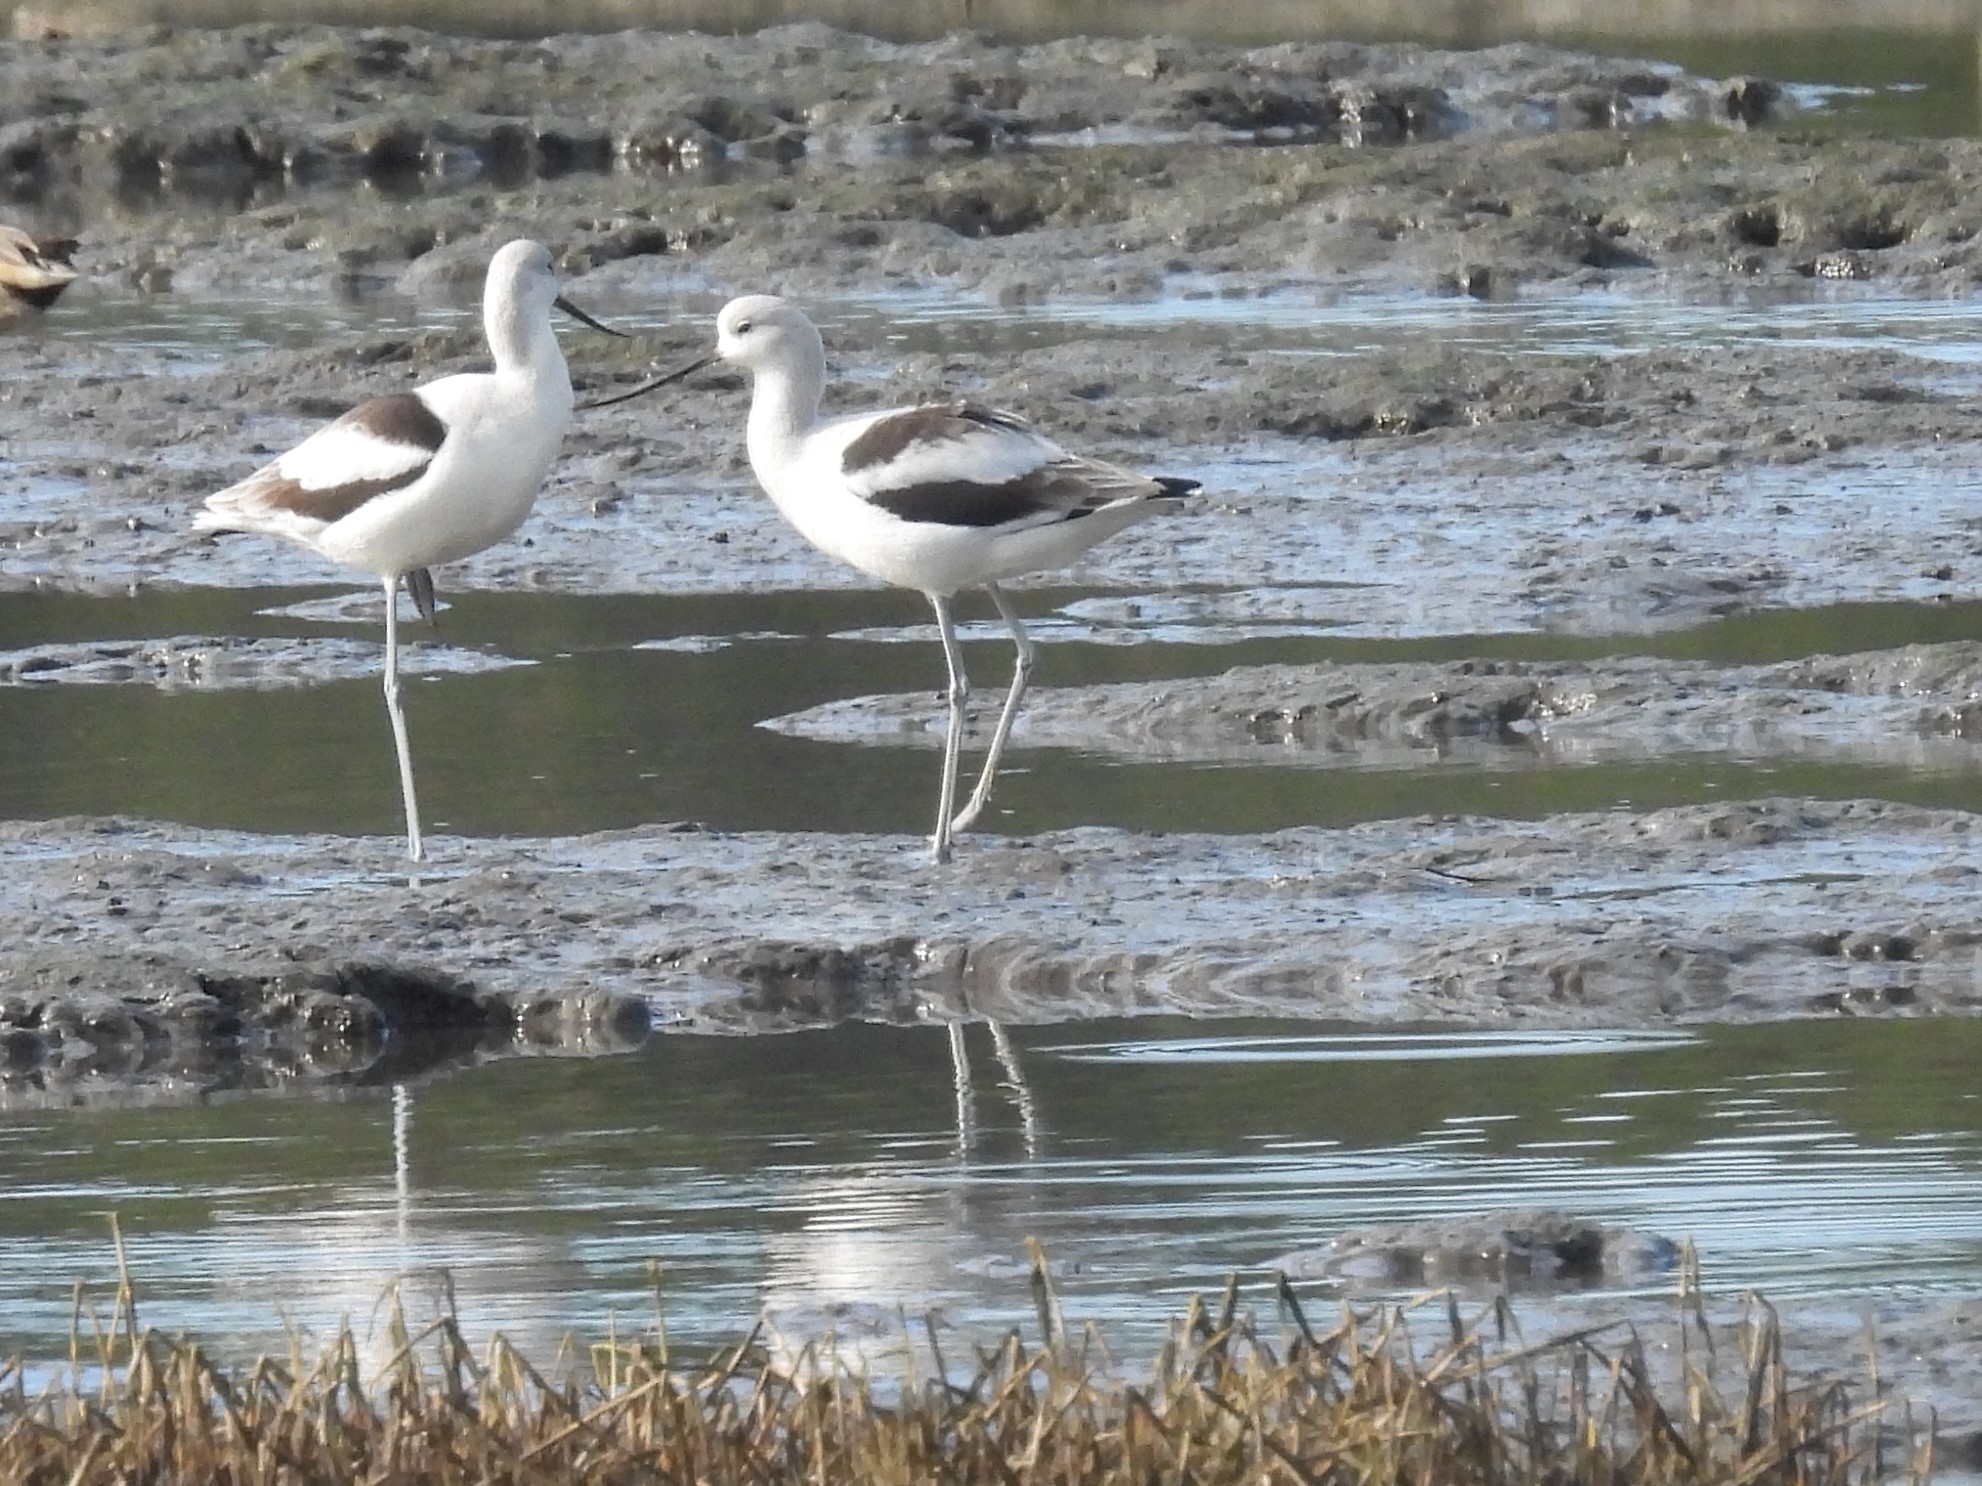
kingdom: Animalia
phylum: Chordata
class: Aves
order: Charadriiformes
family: Recurvirostridae
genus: Recurvirostra
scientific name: Recurvirostra americana
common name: American avocet
